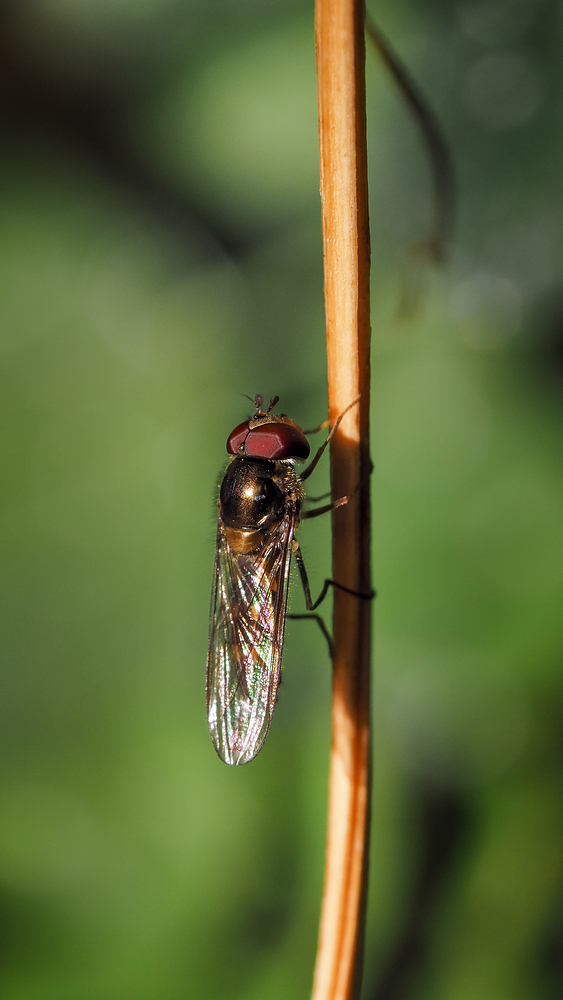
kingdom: Animalia
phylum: Arthropoda
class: Insecta
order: Diptera
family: Syrphidae
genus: Platycheirus
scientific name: Platycheirus albimanus
